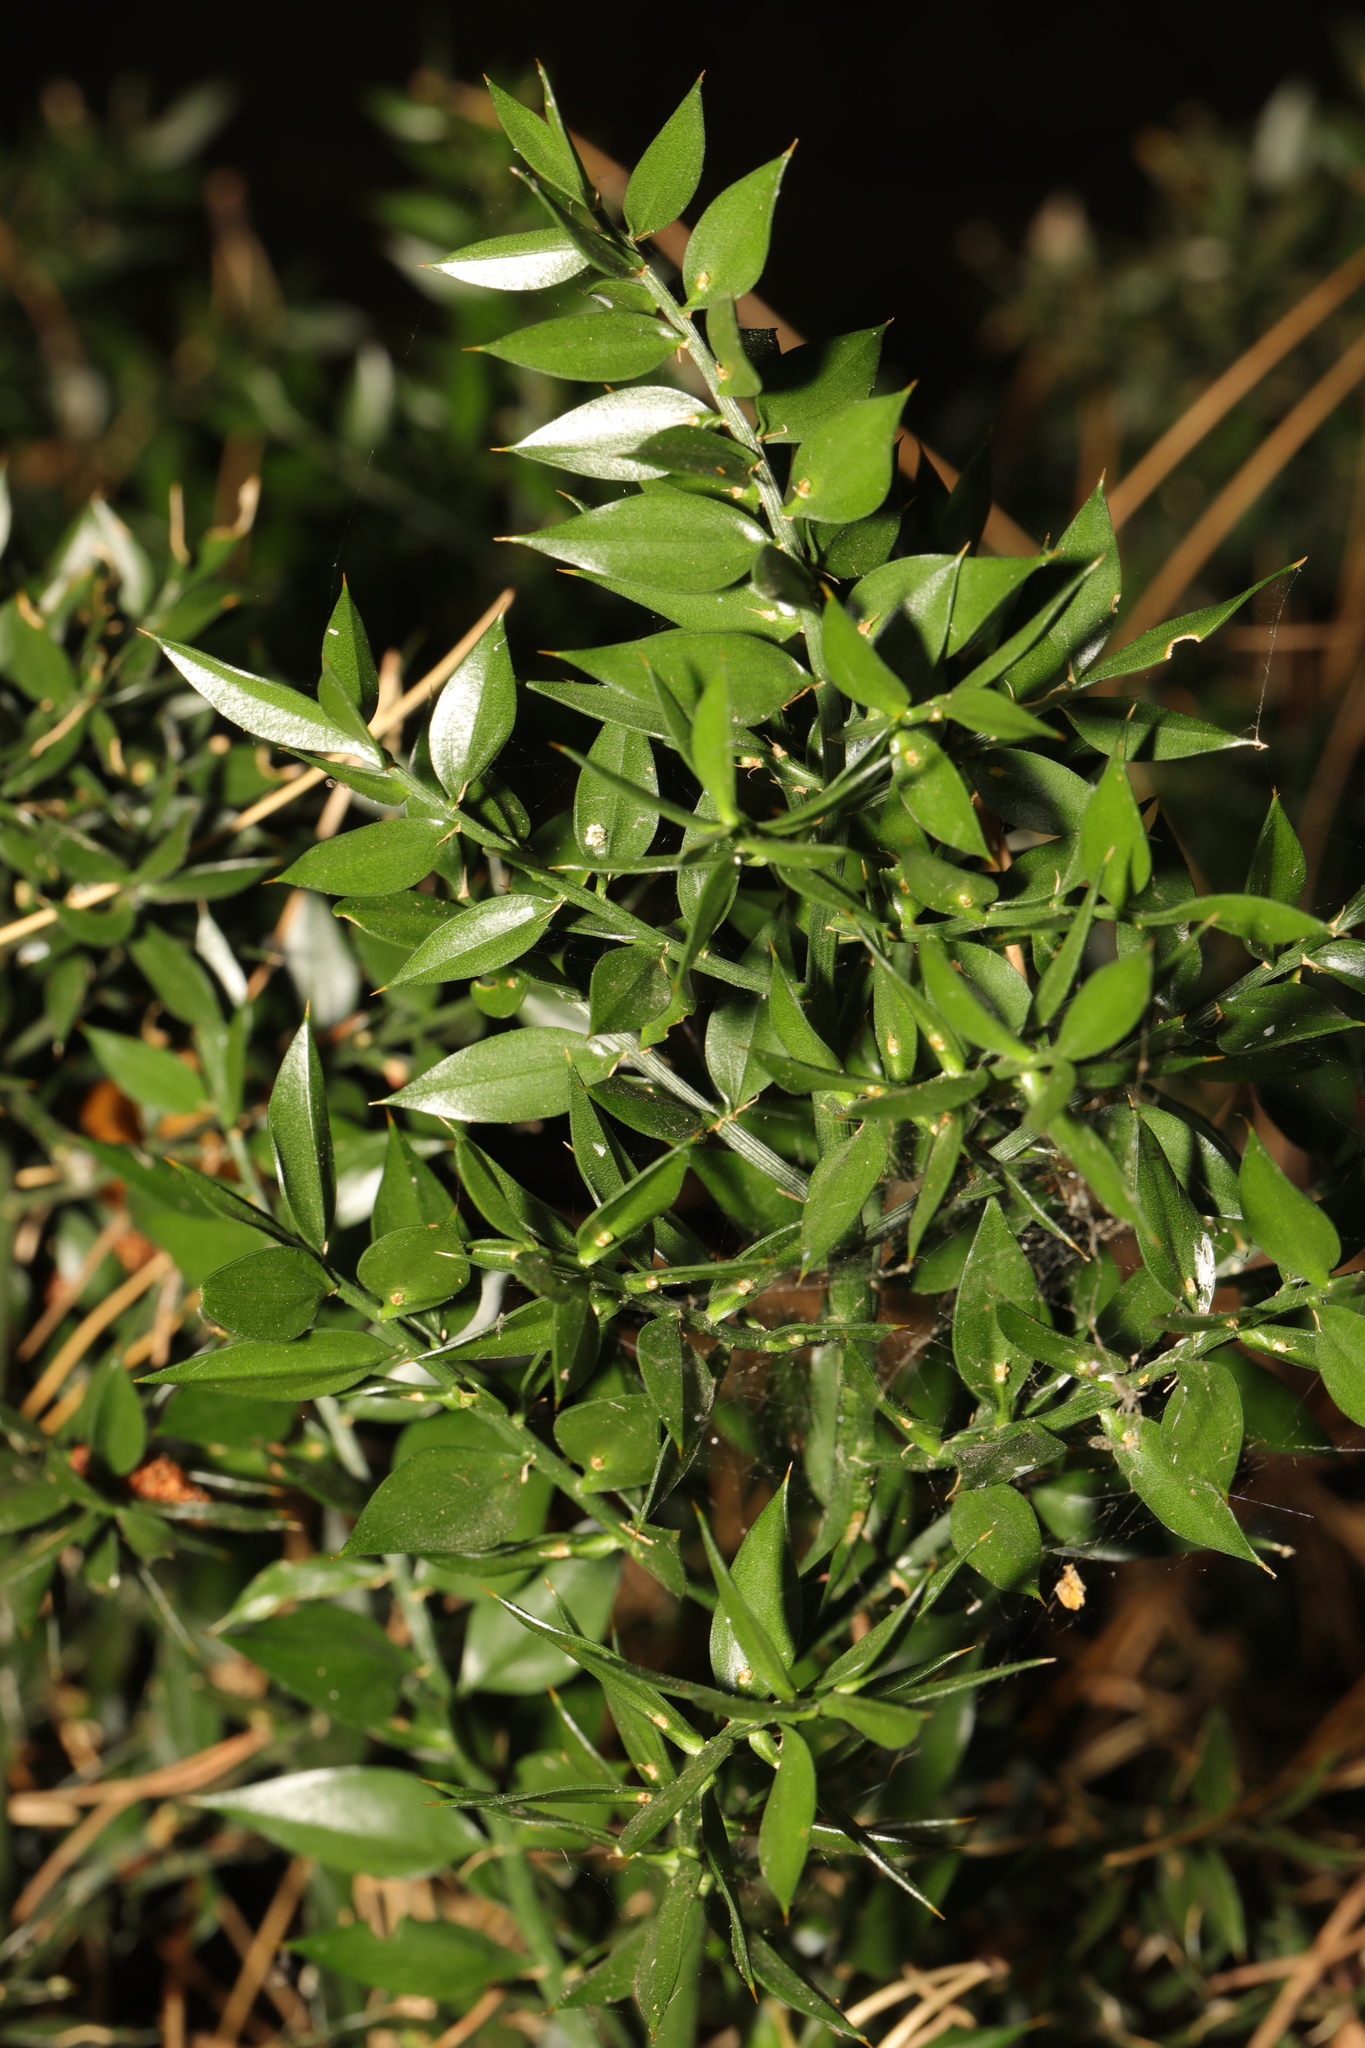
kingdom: Plantae
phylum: Tracheophyta
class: Liliopsida
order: Asparagales
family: Asparagaceae
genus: Ruscus
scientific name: Ruscus aculeatus
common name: Butcher's-broom
